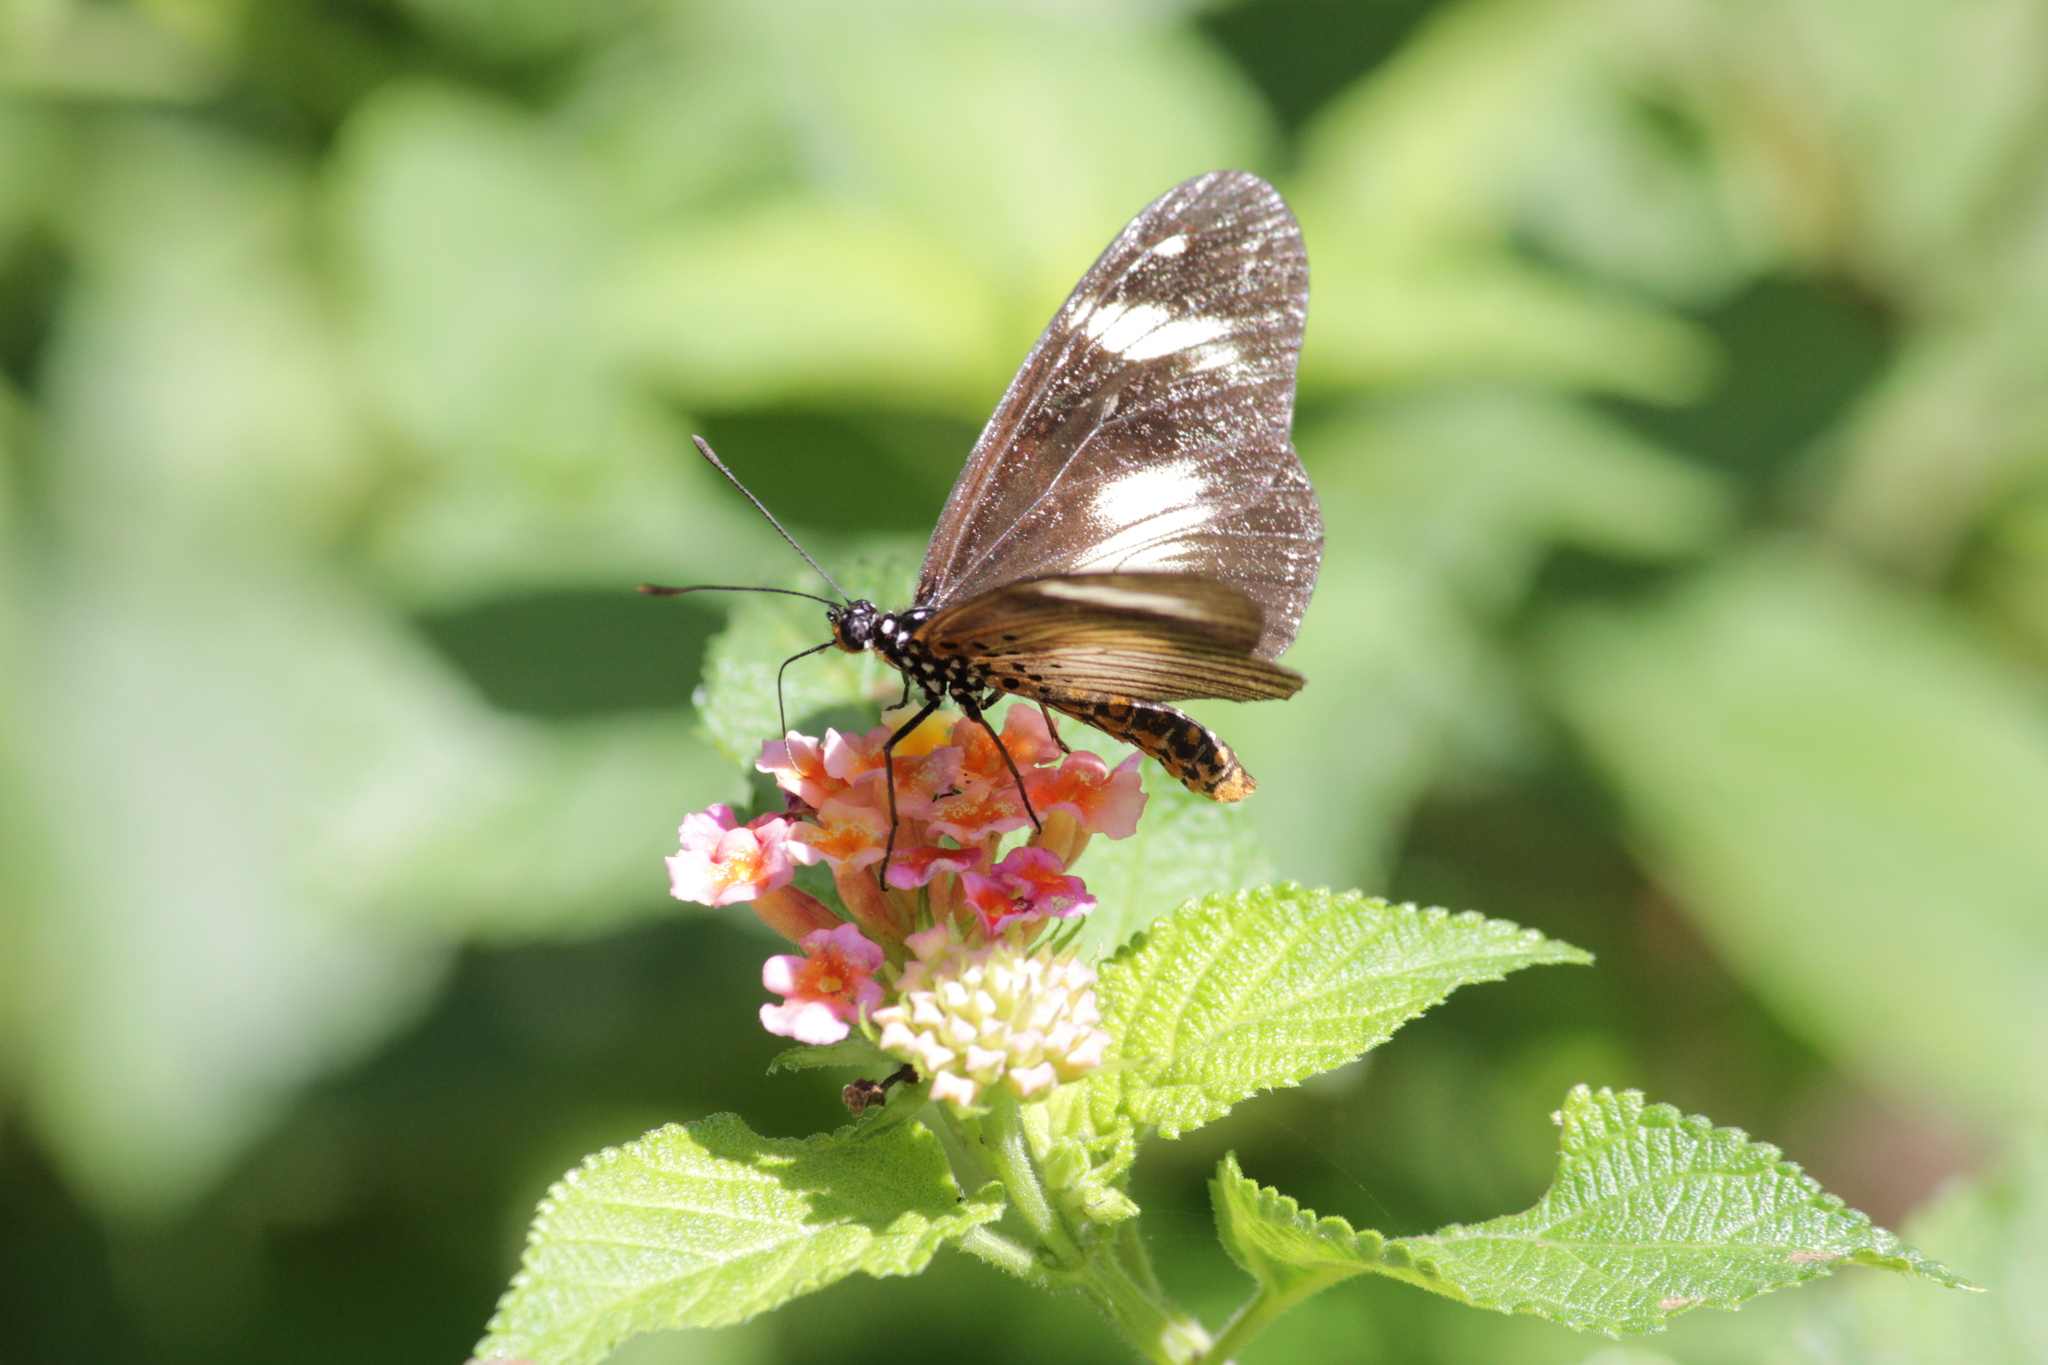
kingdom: Animalia
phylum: Arthropoda
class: Insecta
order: Lepidoptera
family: Nymphalidae
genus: Acraea
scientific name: Acraea esebria
